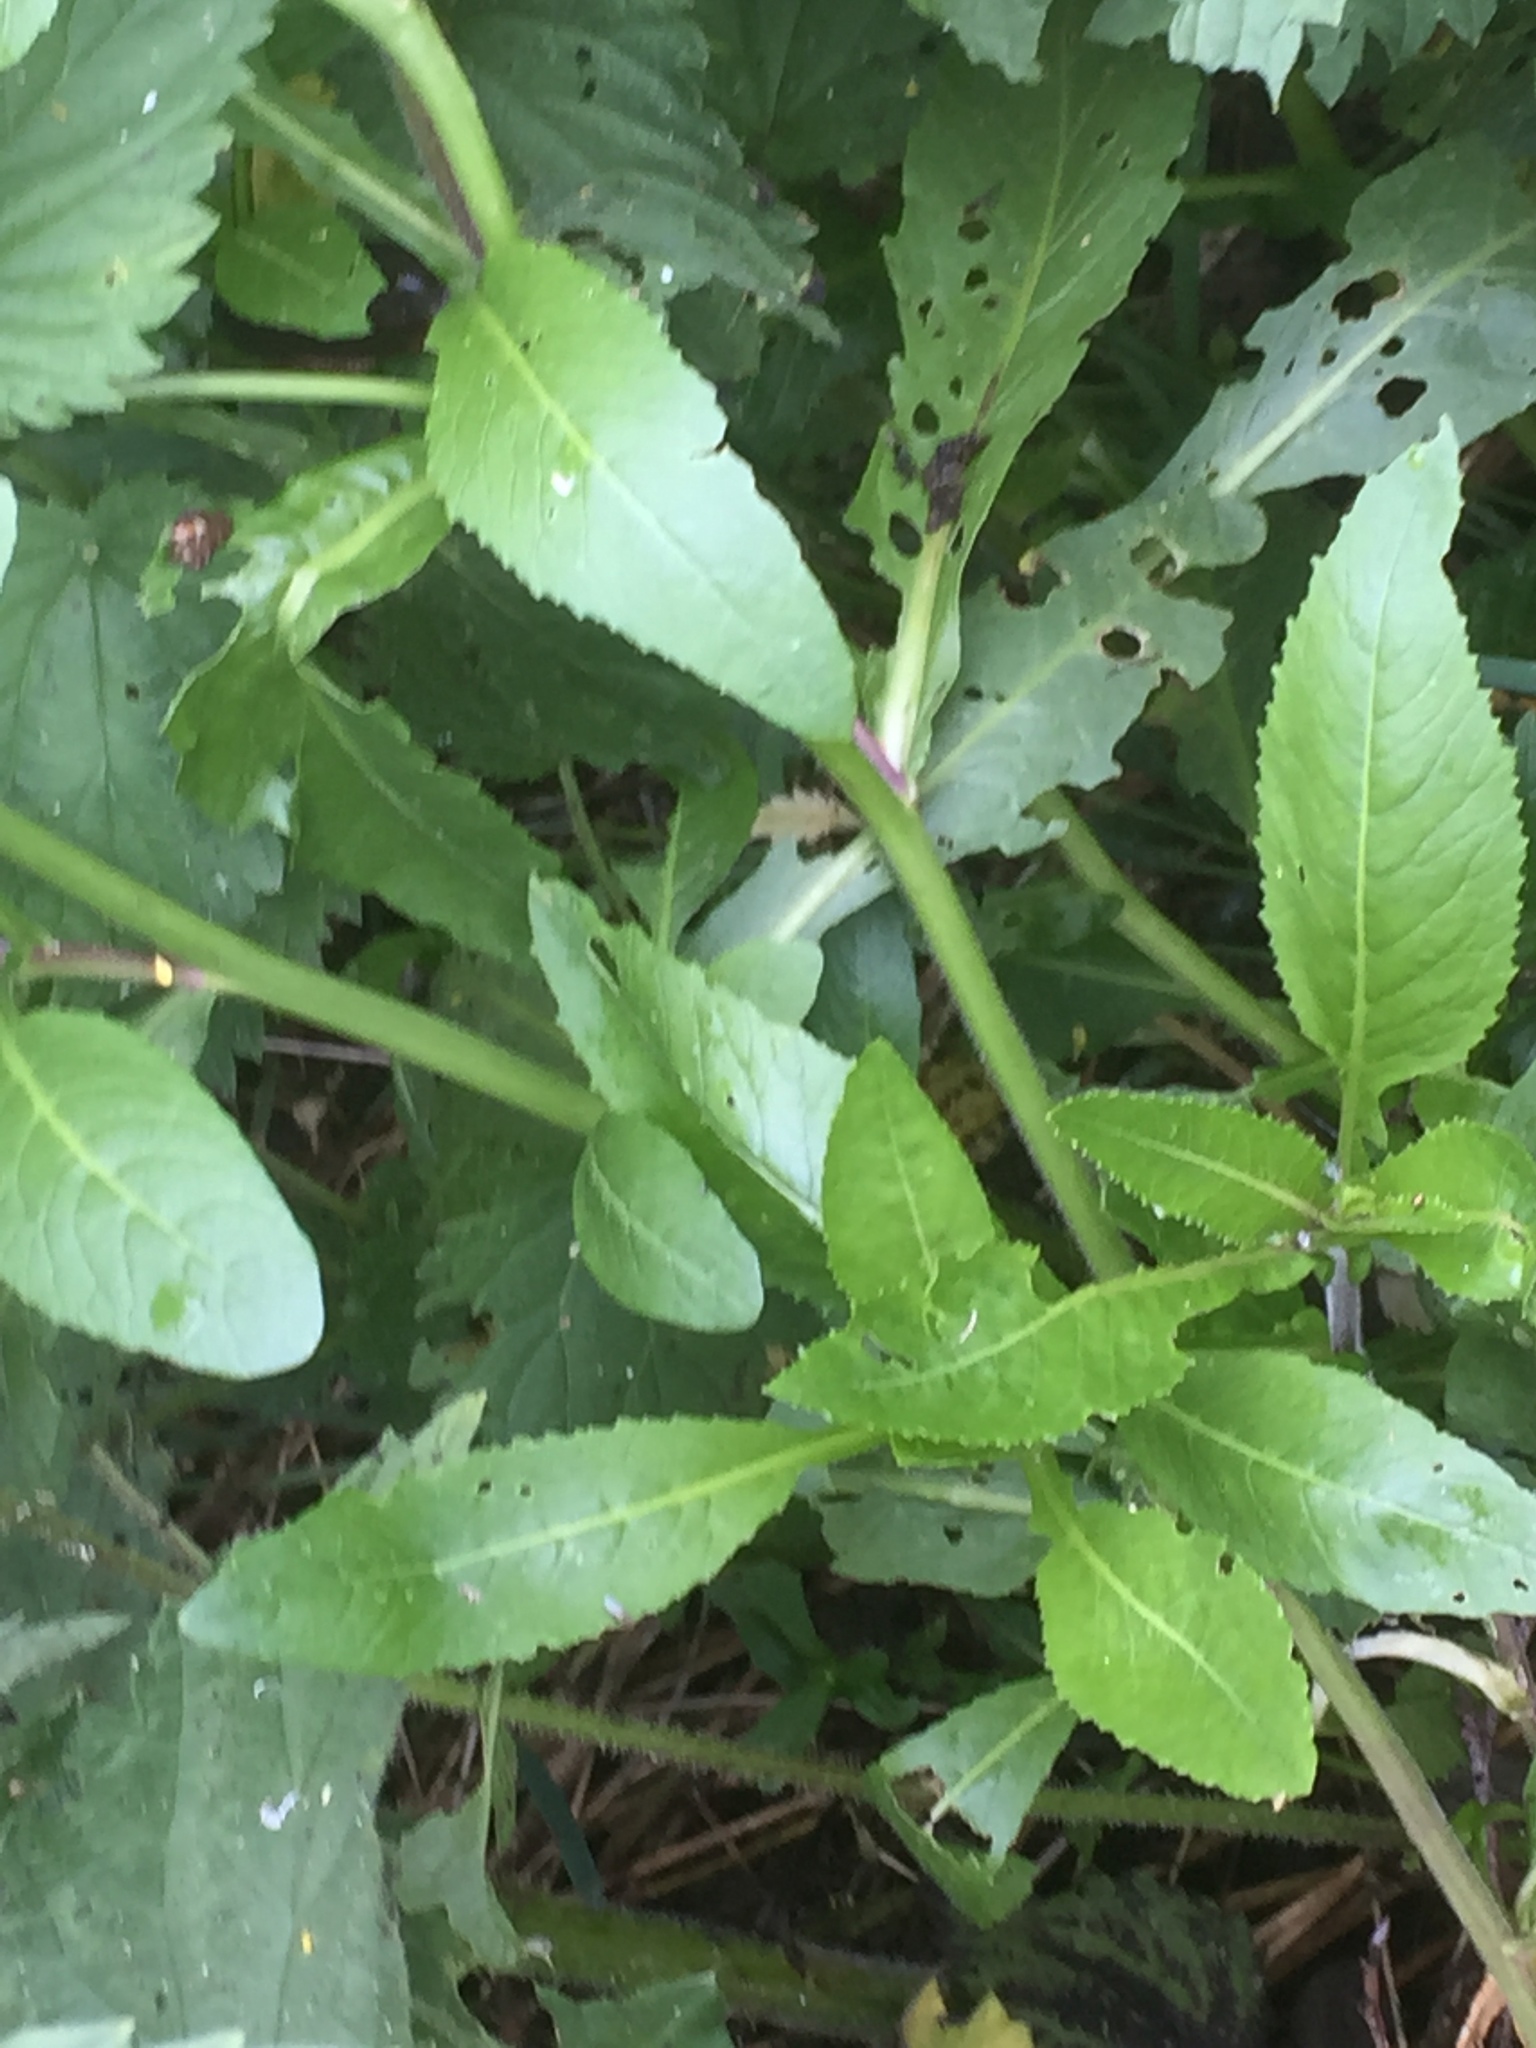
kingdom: Plantae
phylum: Tracheophyta
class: Magnoliopsida
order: Brassicales
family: Brassicaceae
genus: Rorippa
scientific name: Rorippa amphibia
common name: Great yellow-cress
